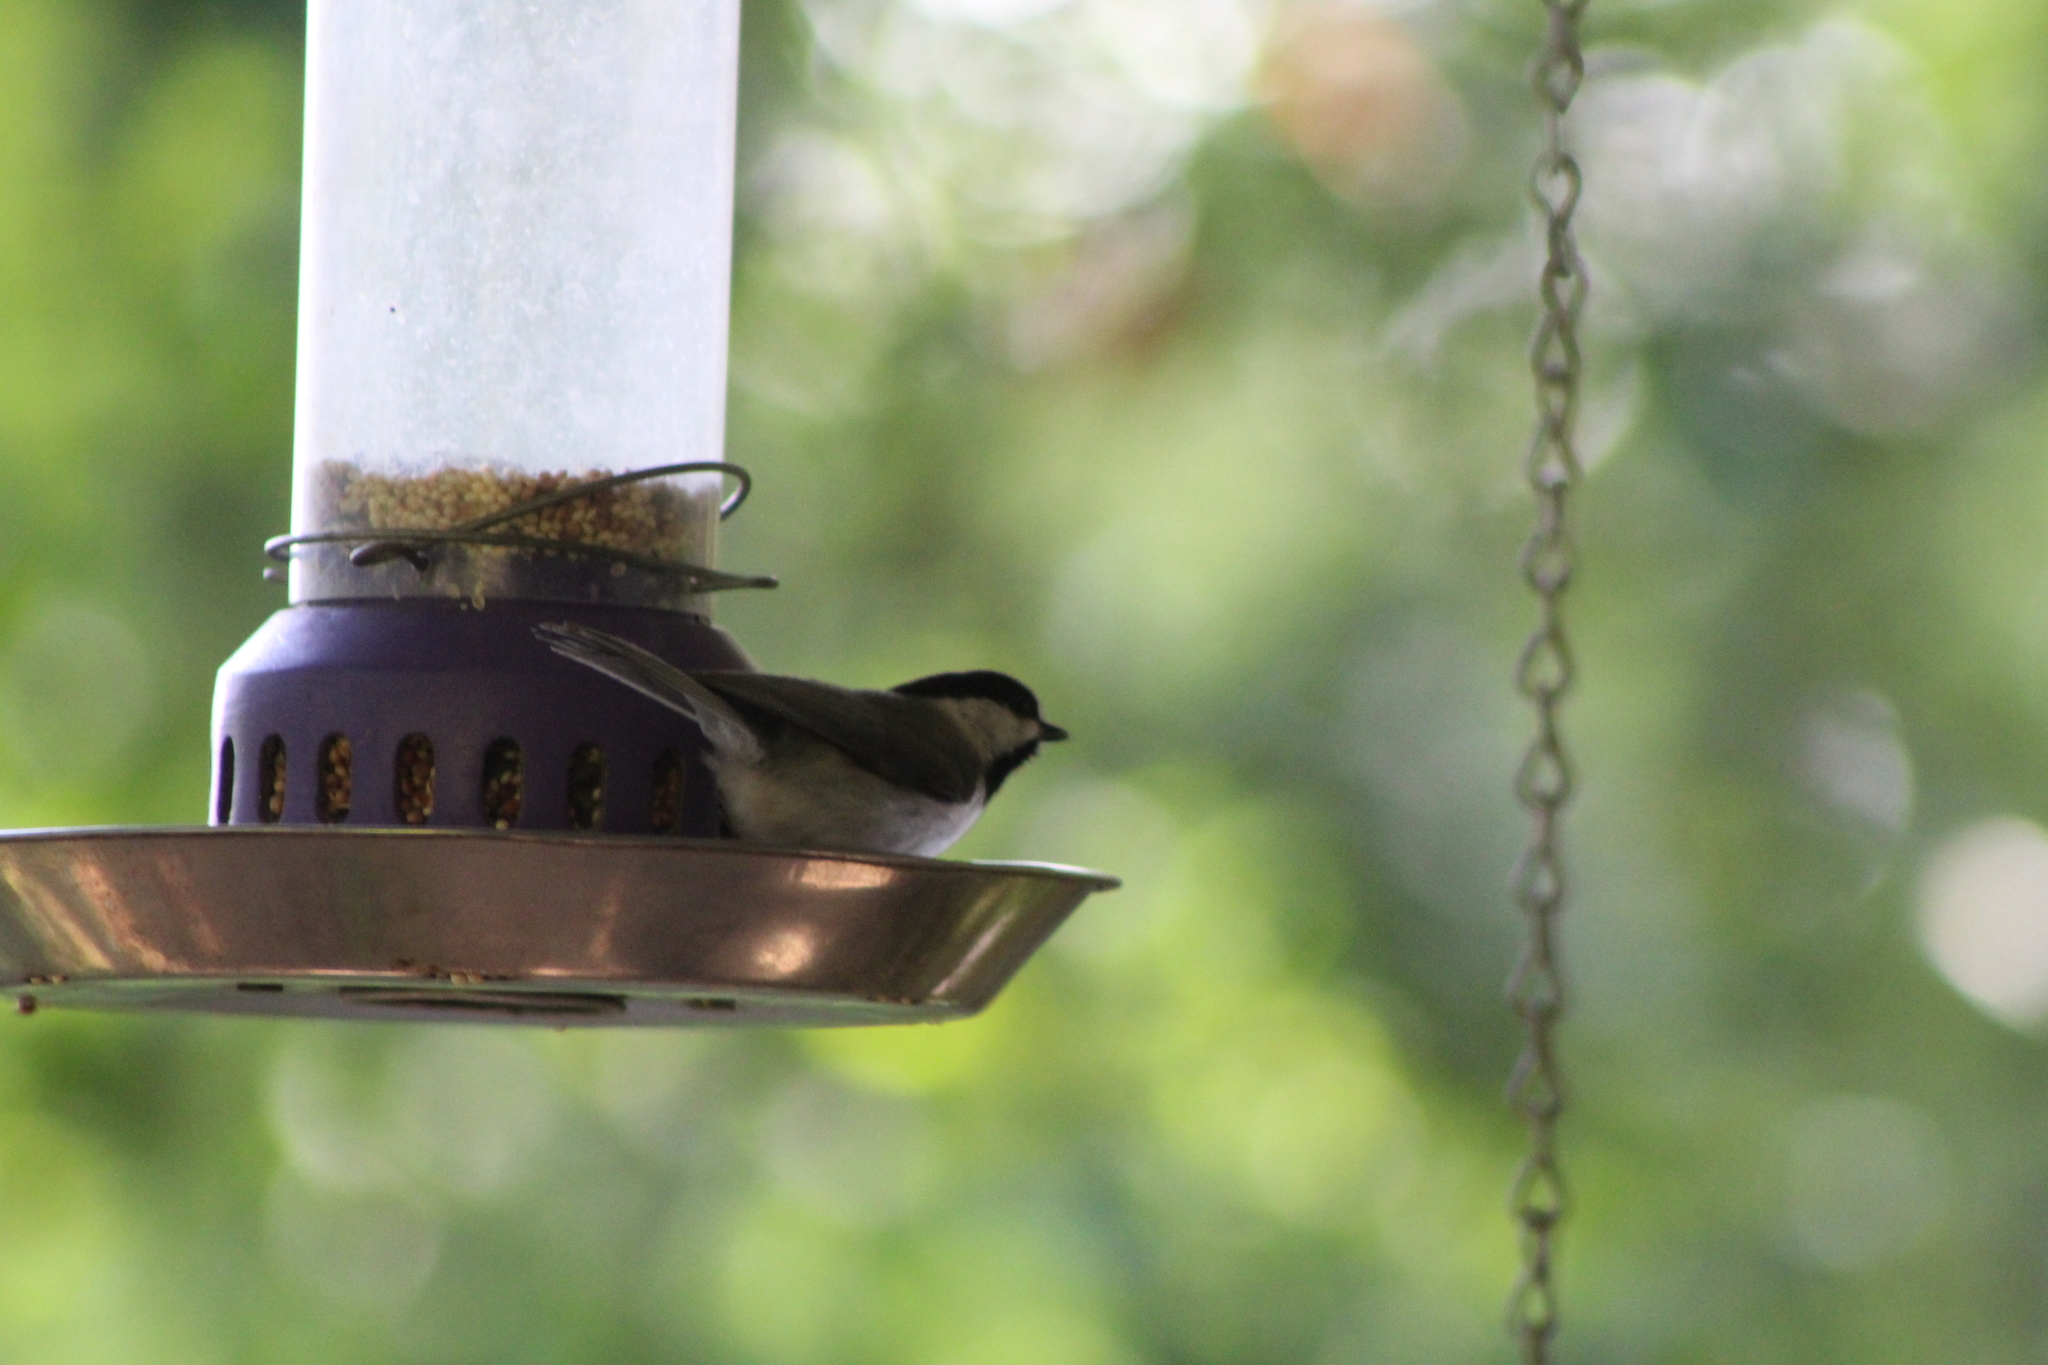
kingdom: Animalia
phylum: Chordata
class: Aves
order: Passeriformes
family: Paridae
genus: Poecile
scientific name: Poecile carolinensis
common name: Carolina chickadee
